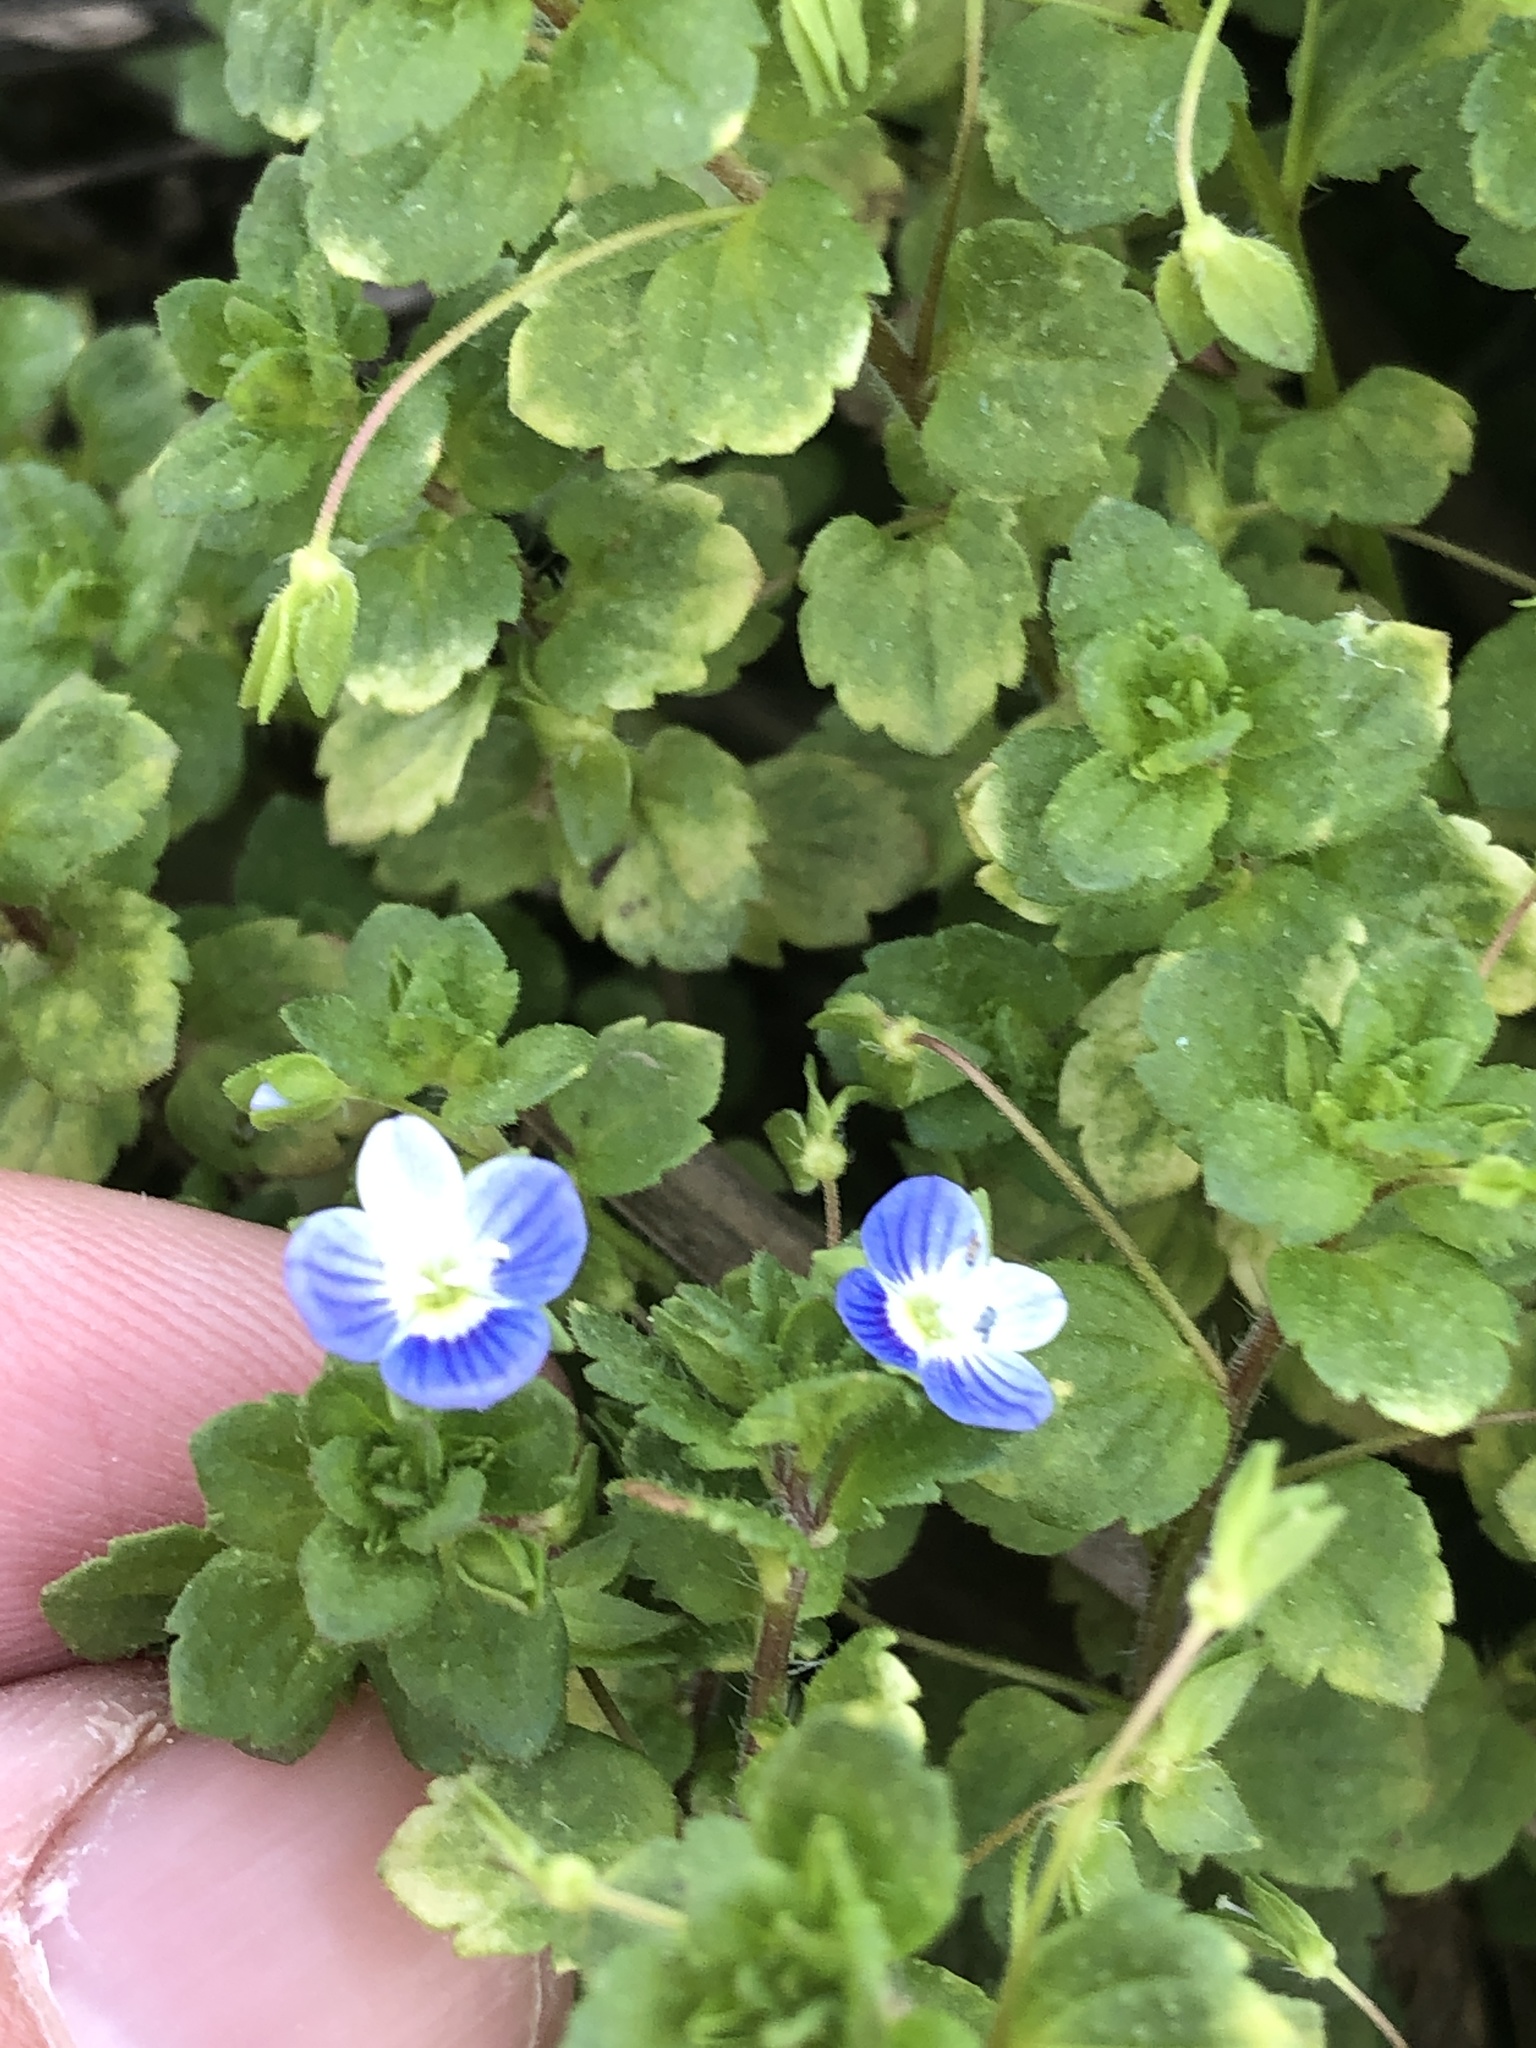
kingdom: Plantae
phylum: Tracheophyta
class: Magnoliopsida
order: Lamiales
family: Plantaginaceae
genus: Veronica
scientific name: Veronica persica
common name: Common field-speedwell
